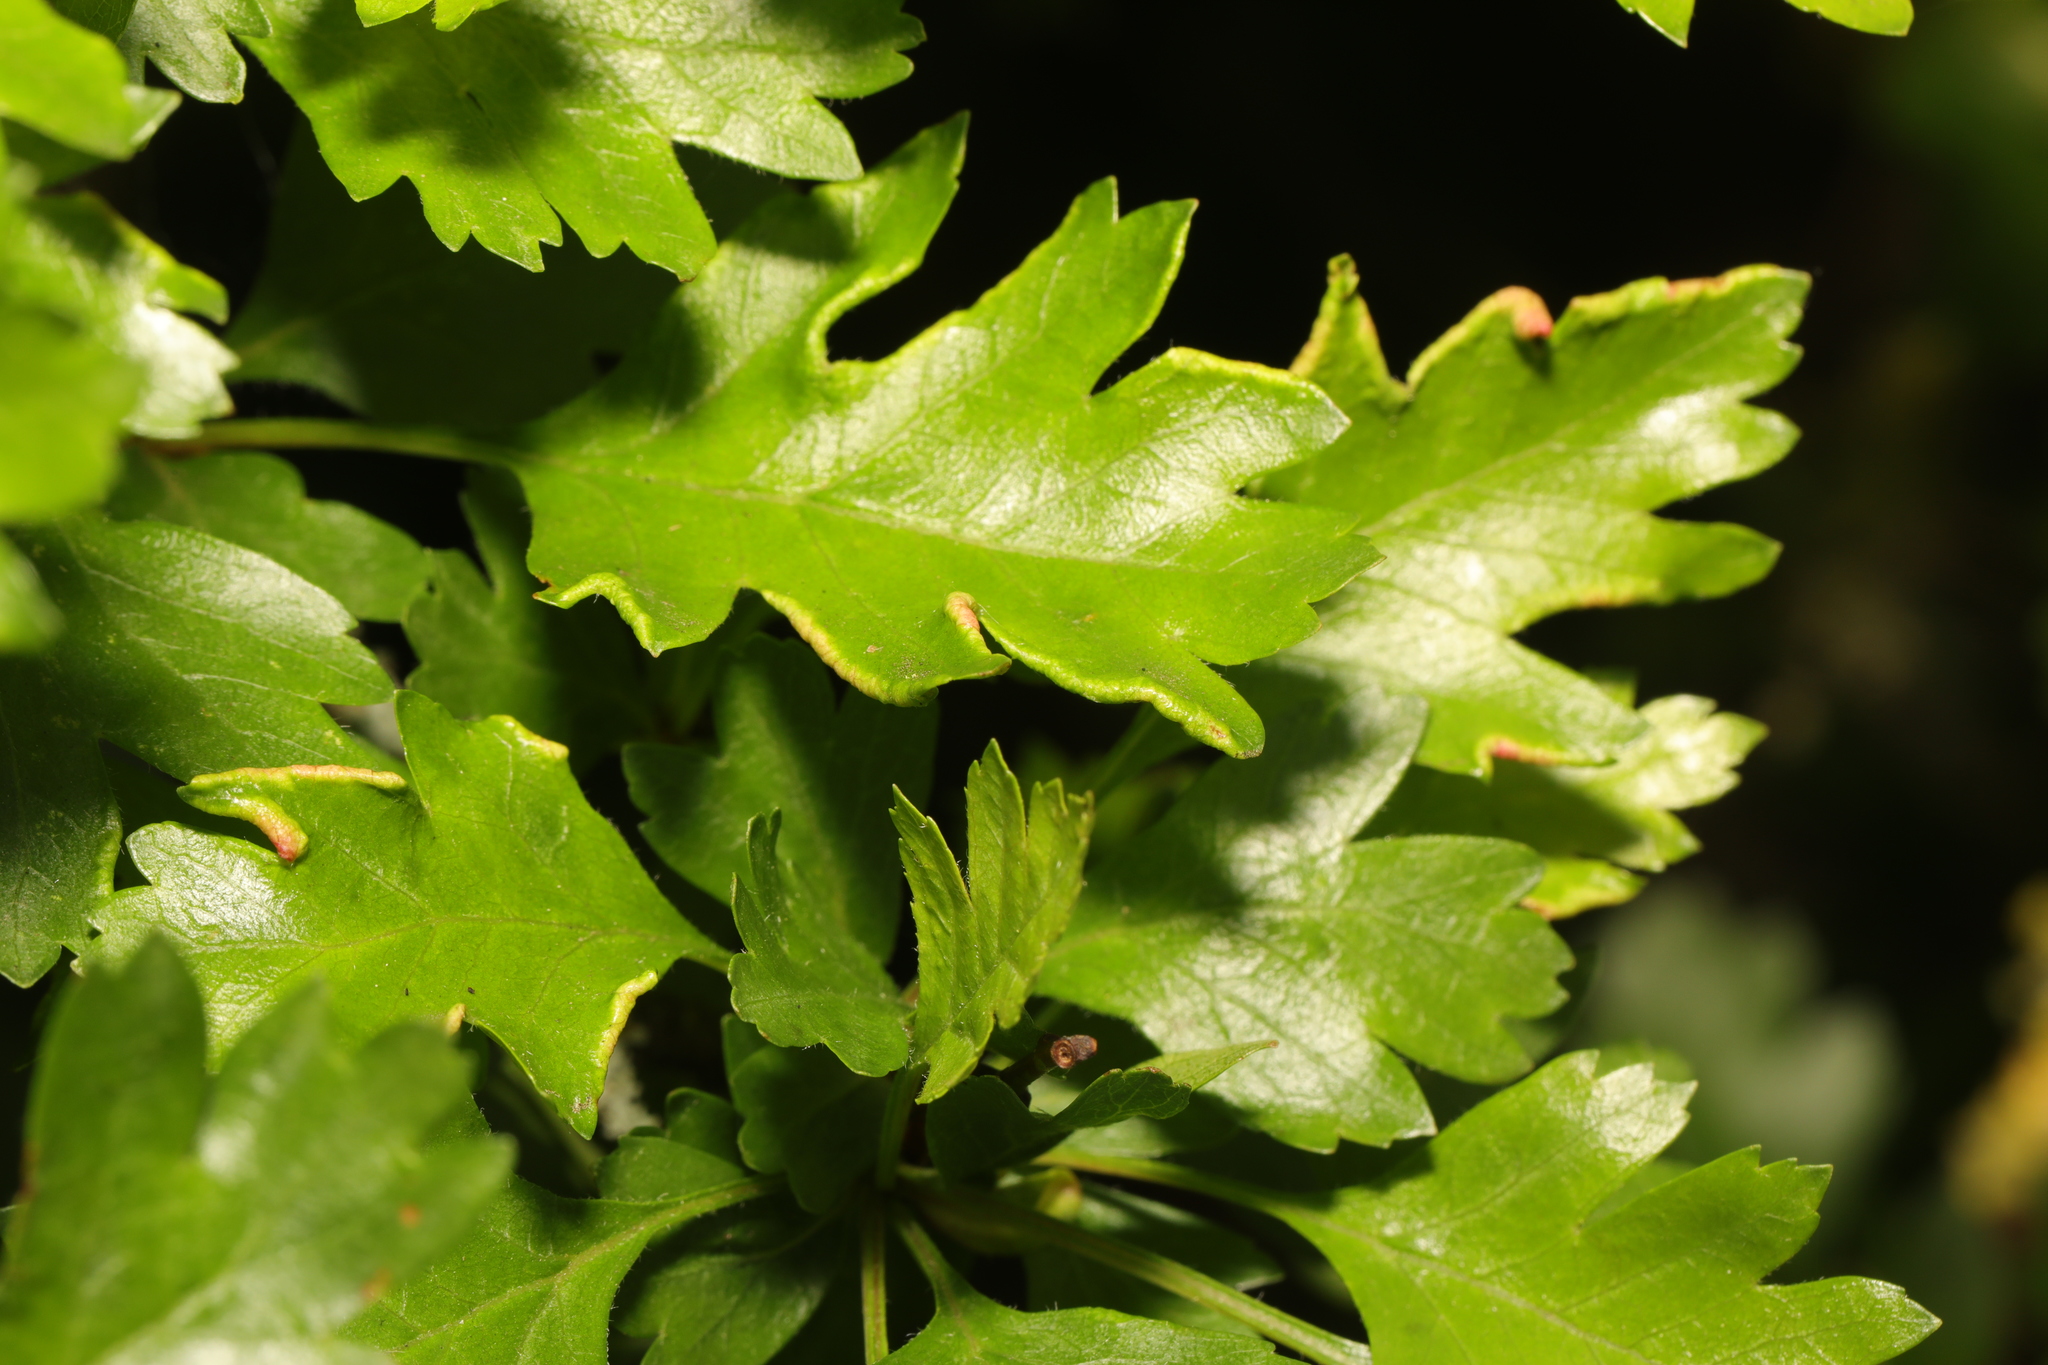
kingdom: Animalia
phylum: Arthropoda
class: Arachnida
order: Trombidiformes
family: Eriophyidae
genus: Phyllocoptes
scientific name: Phyllocoptes goniothorax
